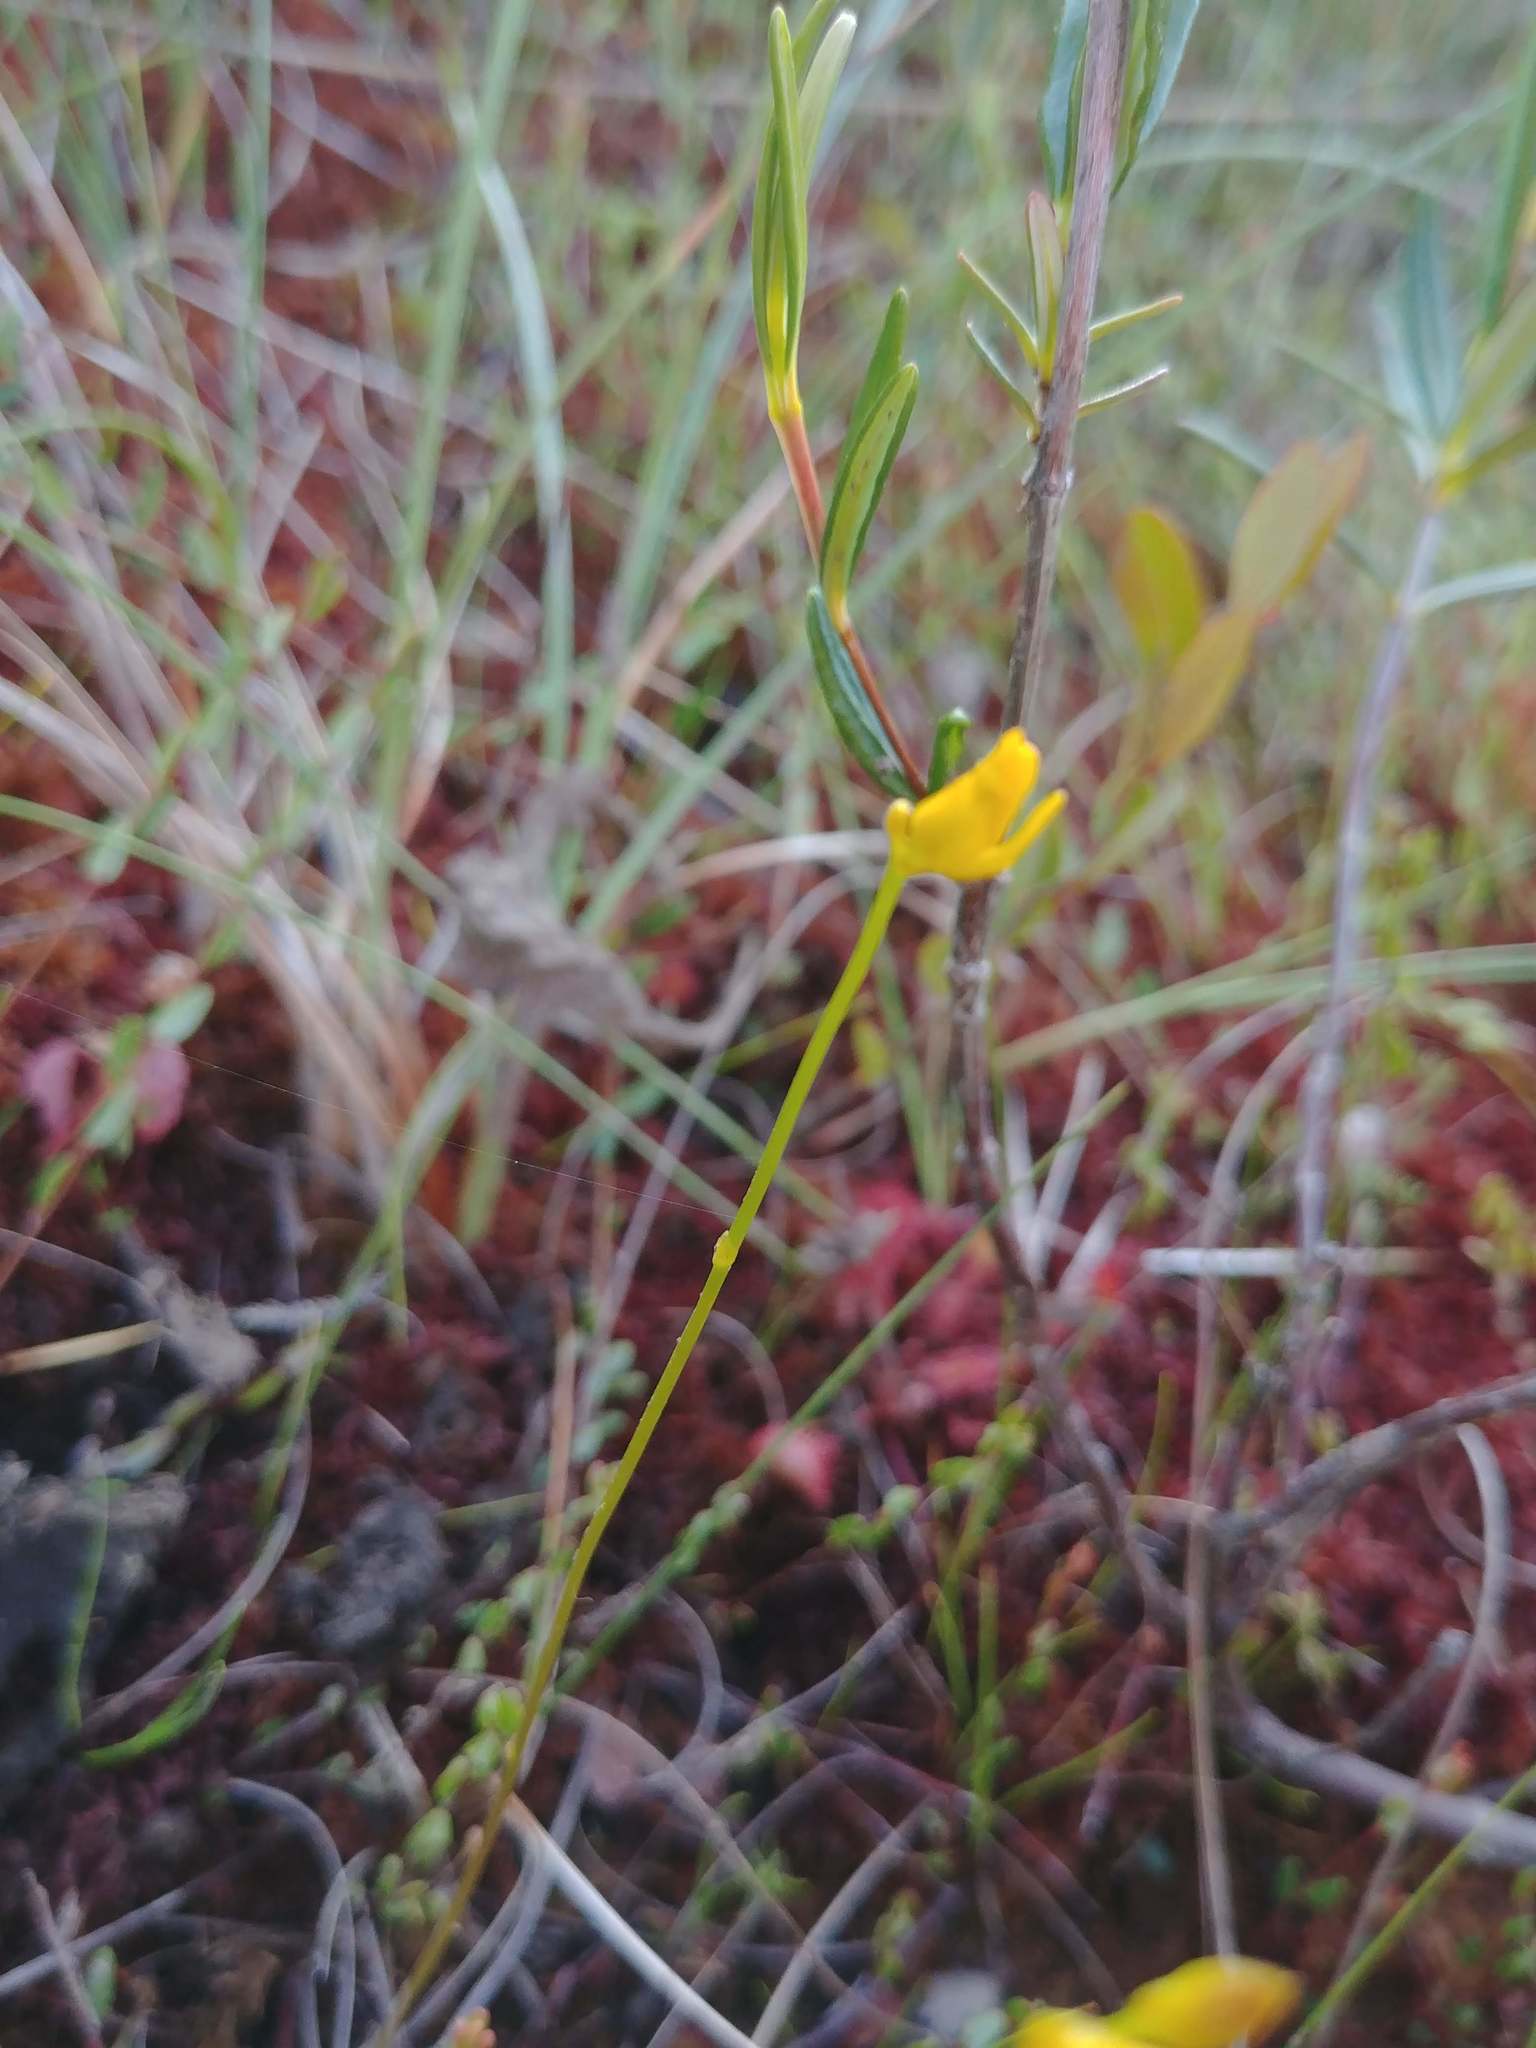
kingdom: Plantae
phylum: Tracheophyta
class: Magnoliopsida
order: Lamiales
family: Lentibulariaceae
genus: Utricularia
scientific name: Utricularia cornuta
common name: Horned bladderwort
